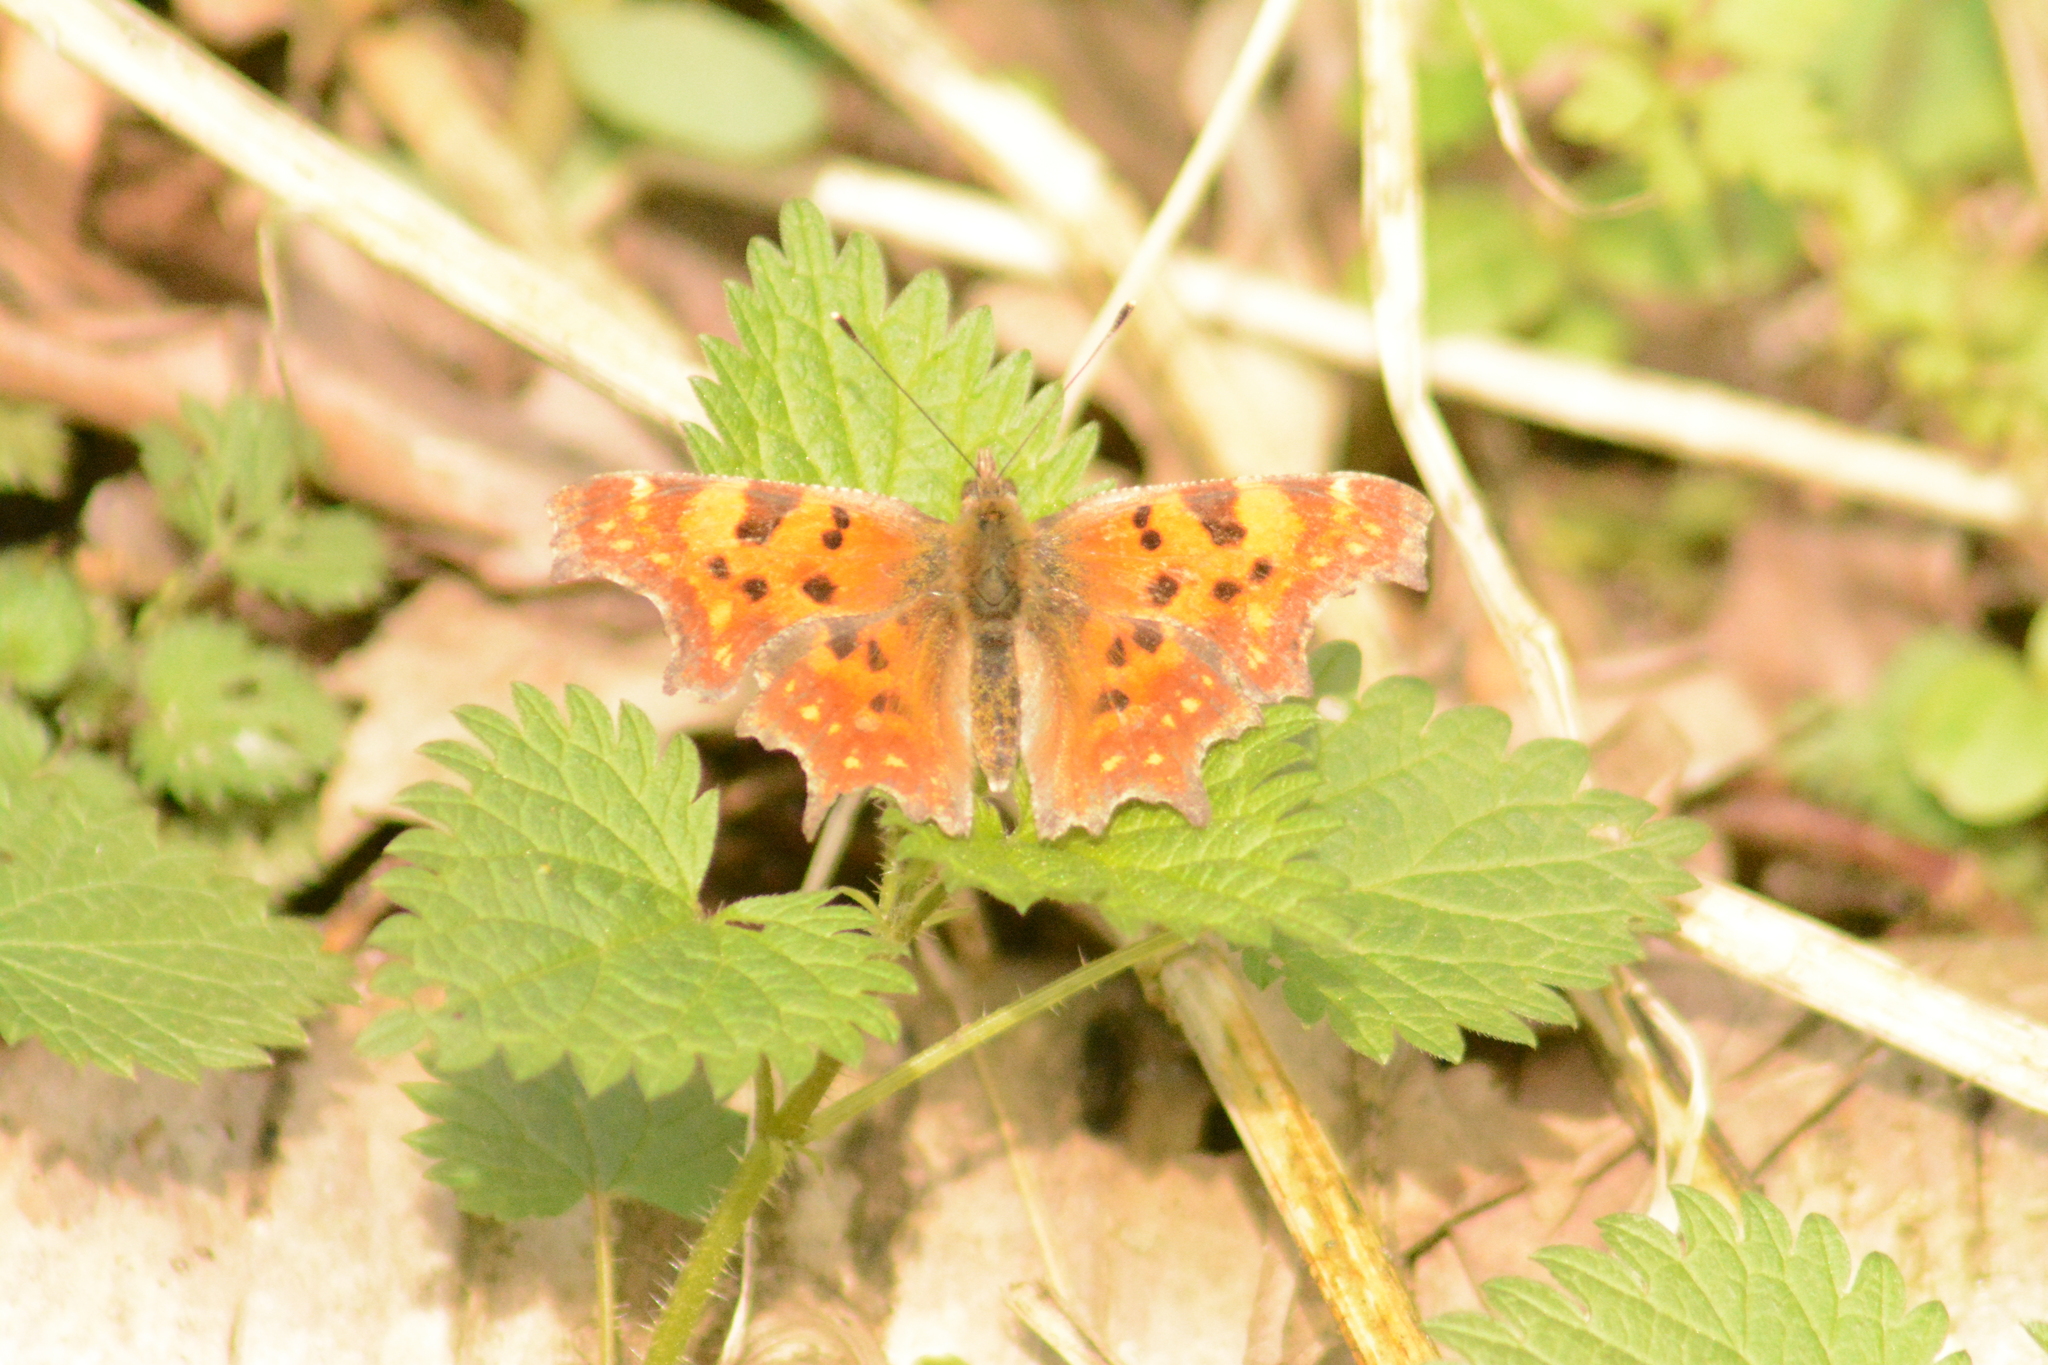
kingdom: Animalia
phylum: Arthropoda
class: Insecta
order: Lepidoptera
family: Nymphalidae
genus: Polygonia
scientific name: Polygonia c-album
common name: Comma
